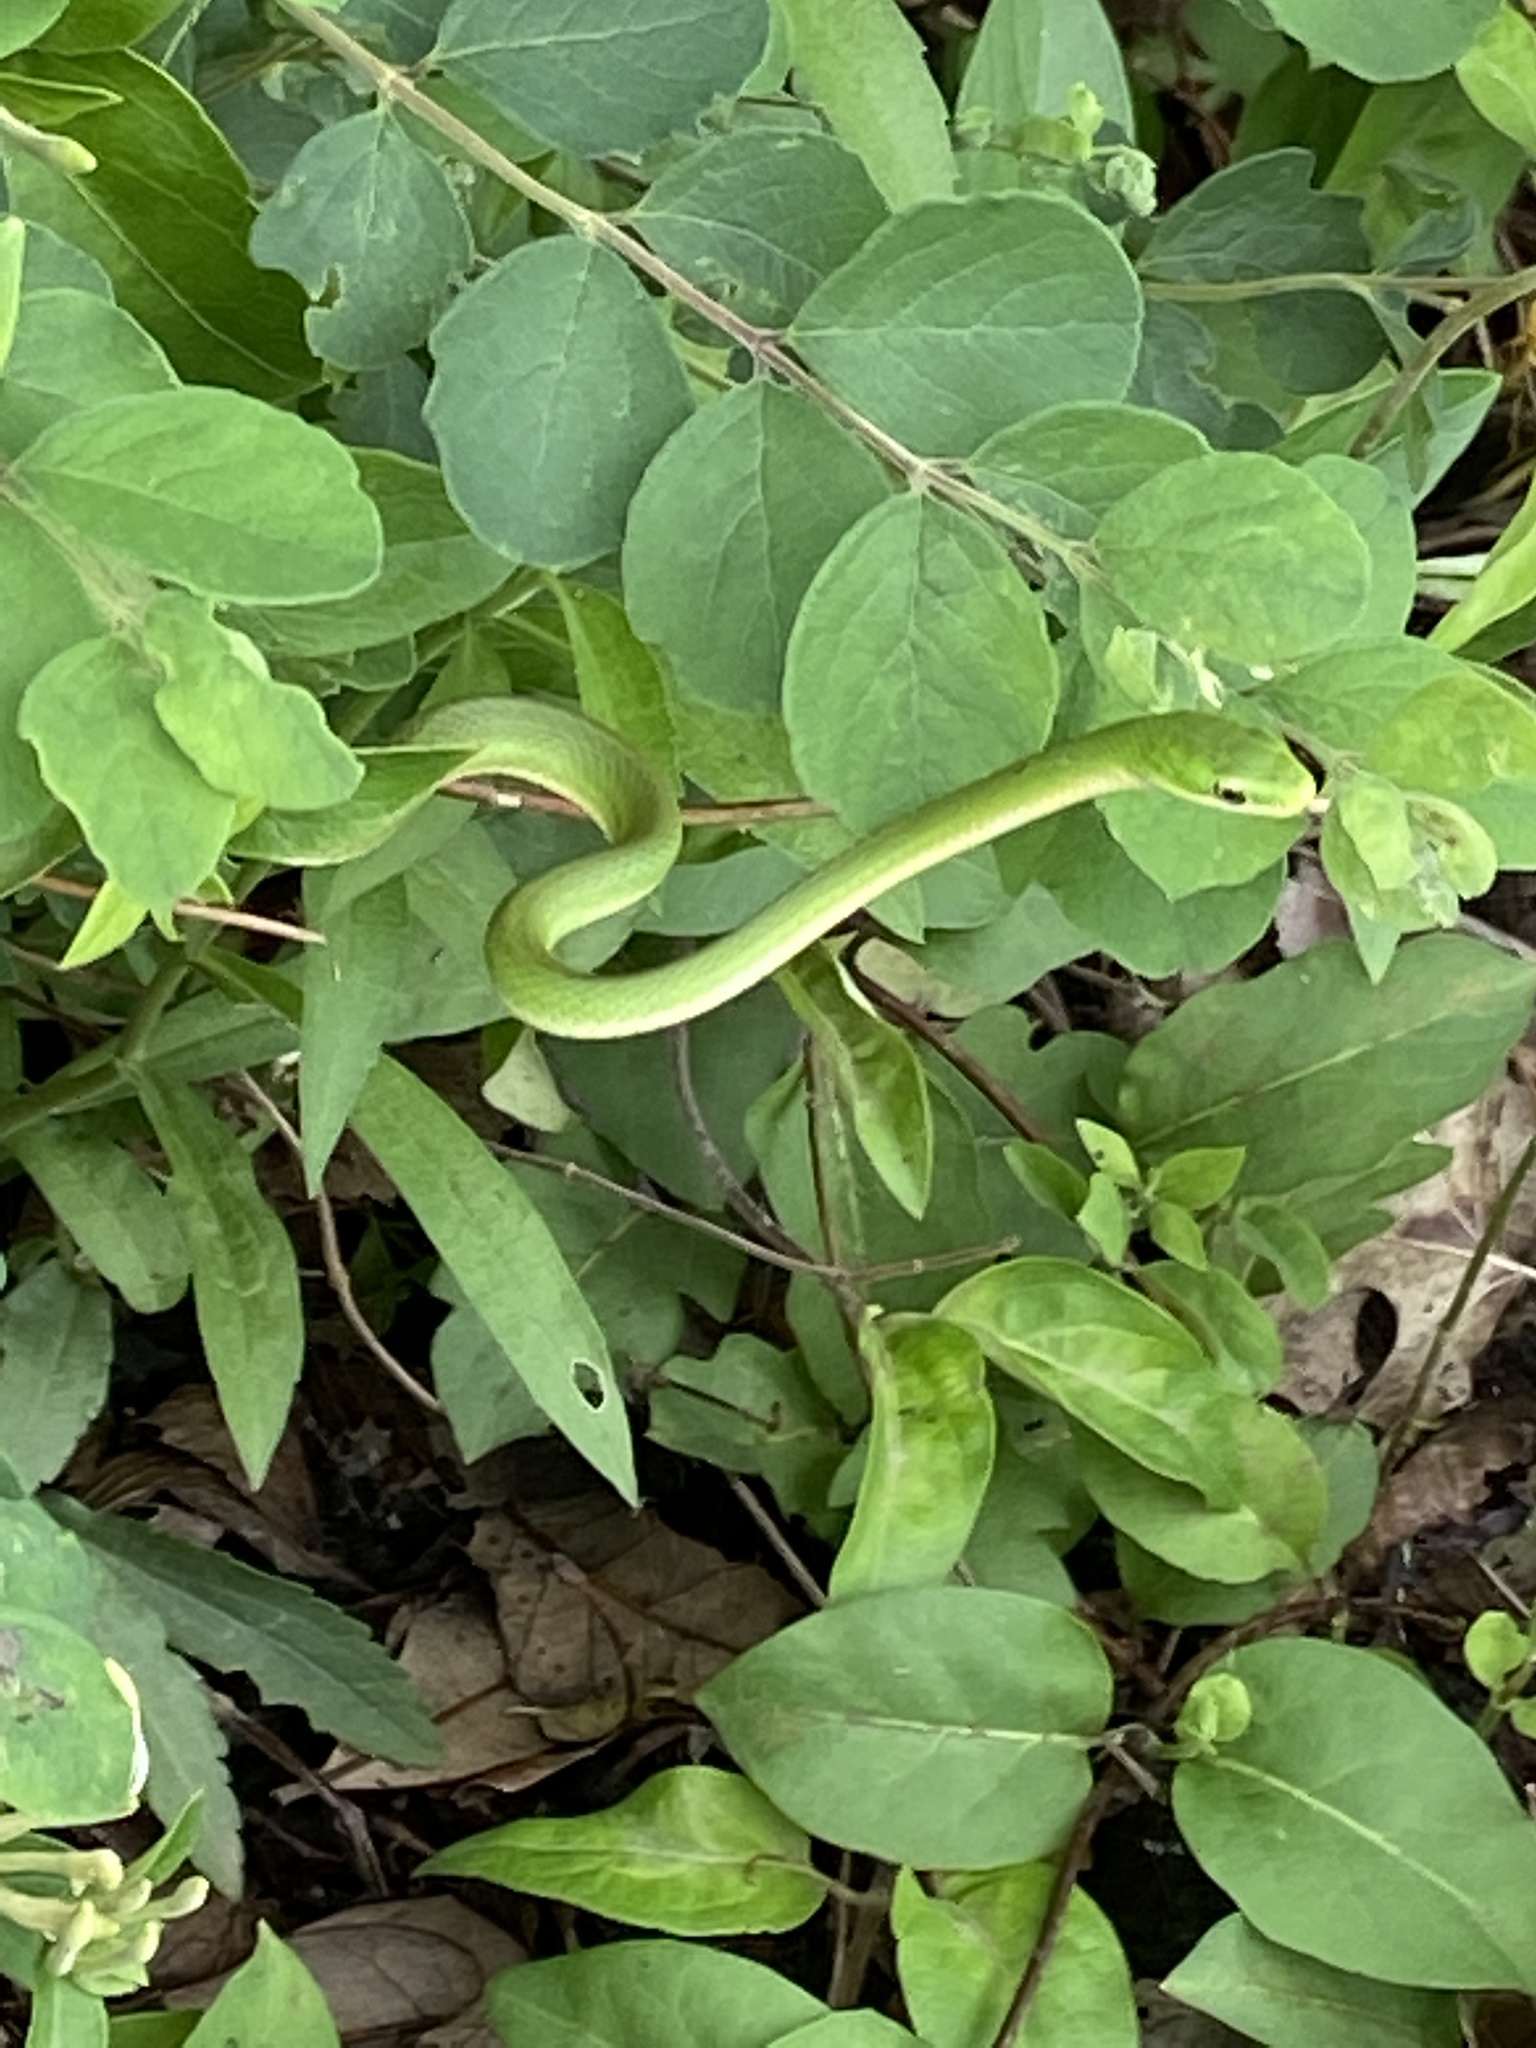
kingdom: Animalia
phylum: Chordata
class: Squamata
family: Colubridae
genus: Opheodrys
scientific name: Opheodrys aestivus
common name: Rough greensnake
